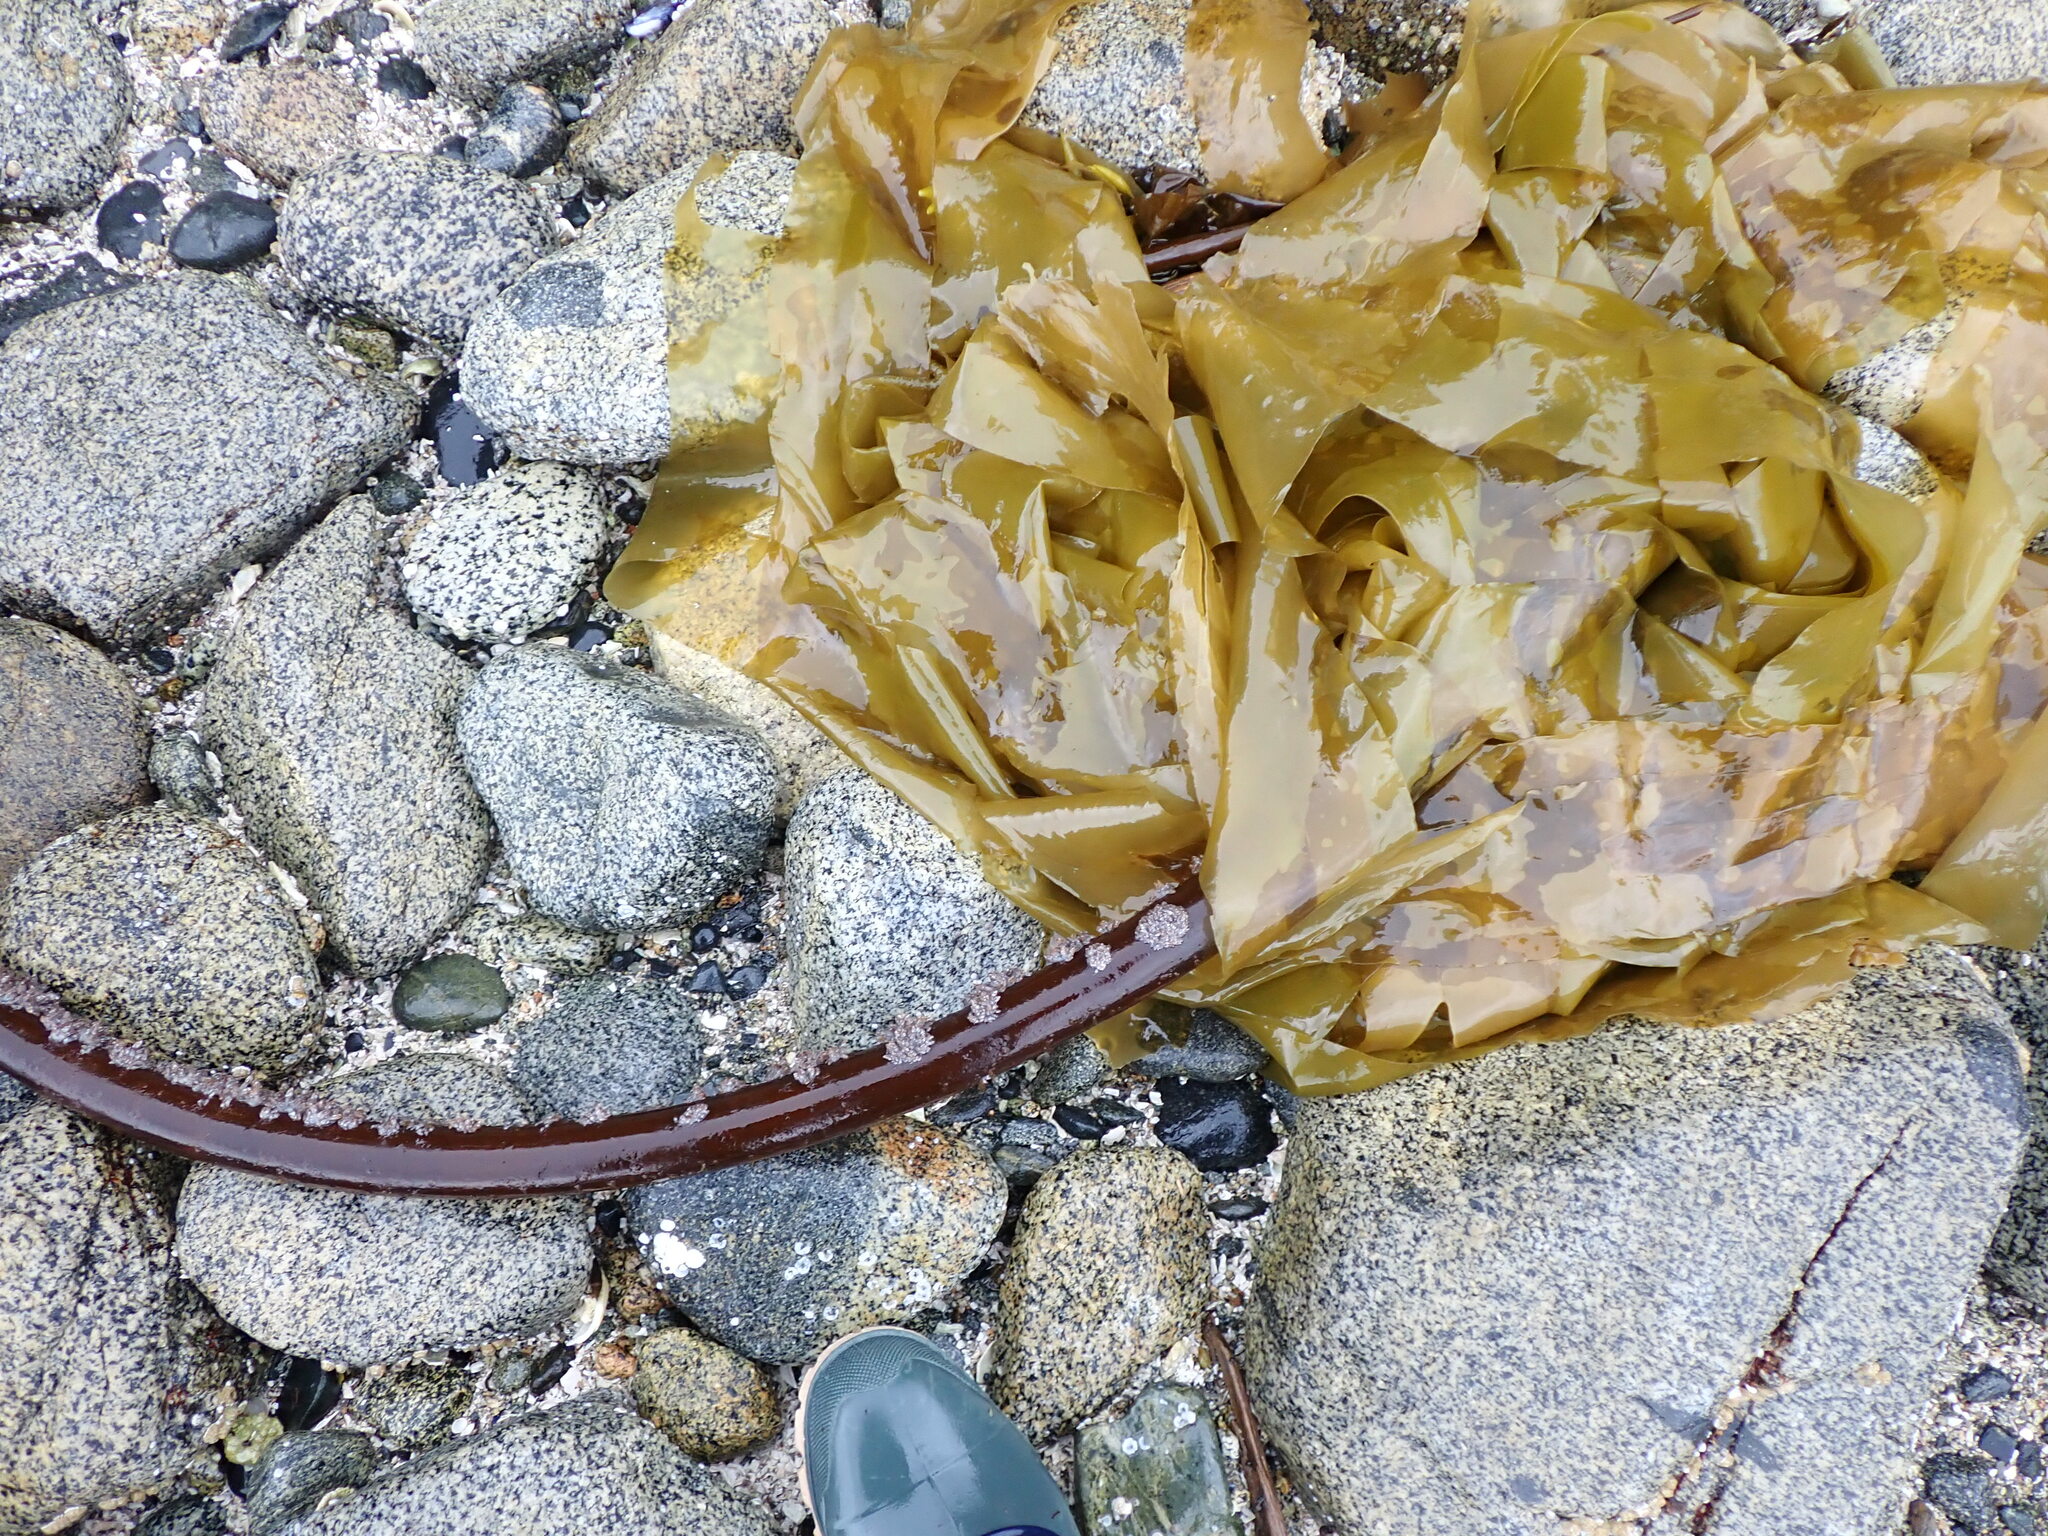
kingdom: Chromista
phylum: Ochrophyta
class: Phaeophyceae
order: Laminariales
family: Laminariaceae
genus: Nereocystis
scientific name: Nereocystis luetkeana
